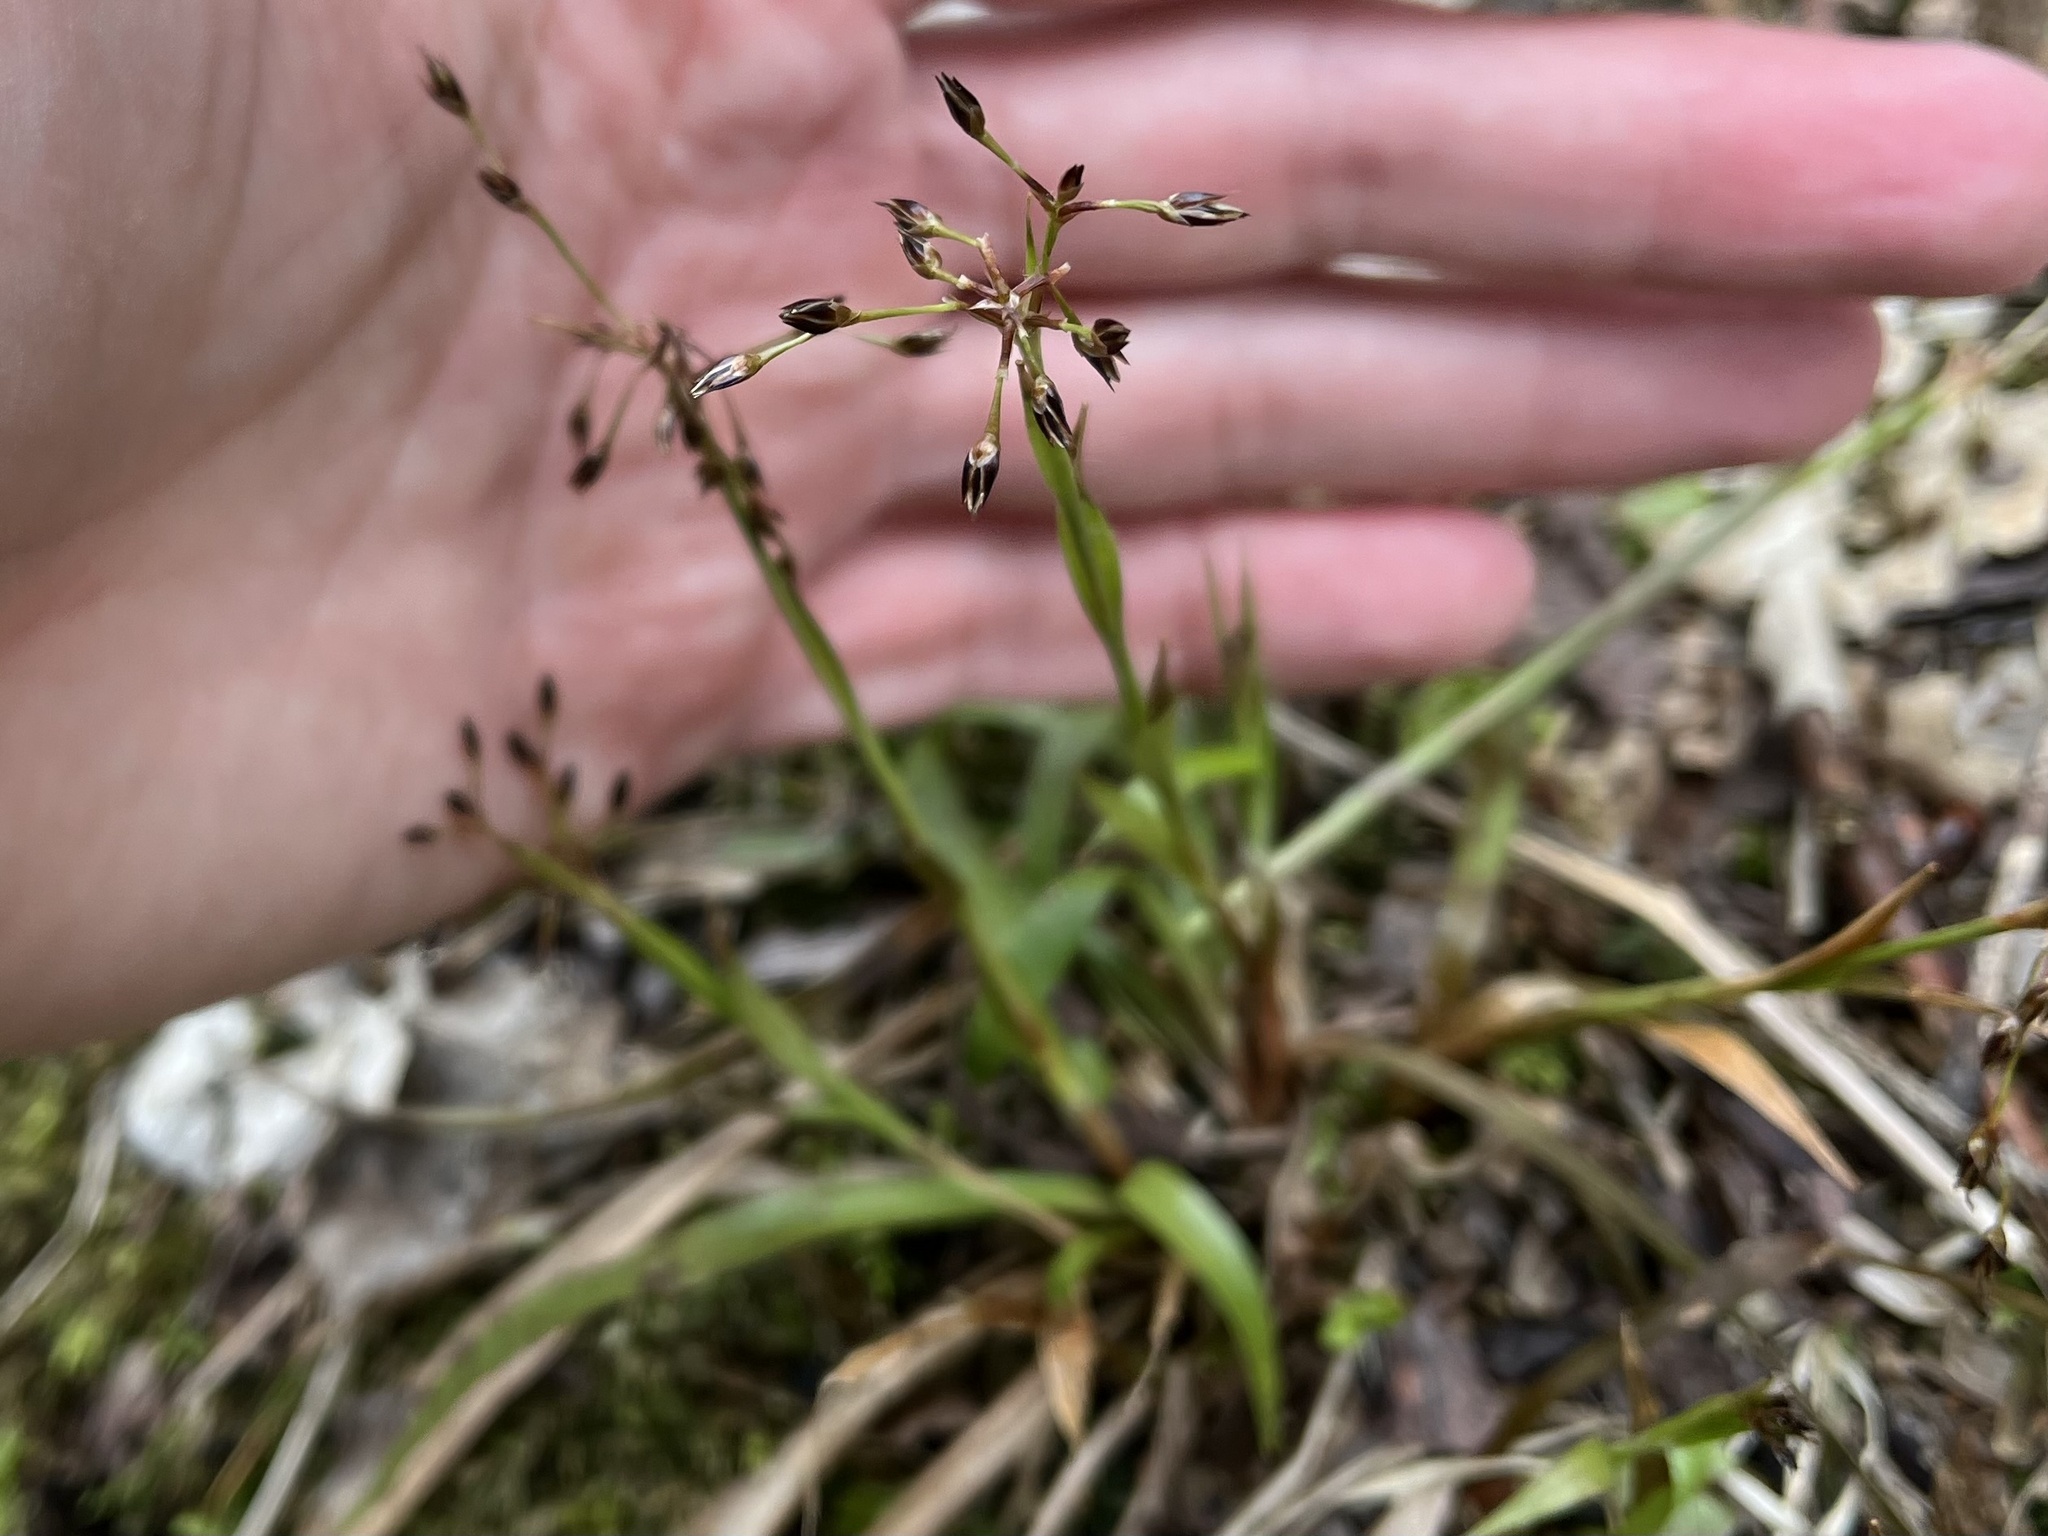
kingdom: Plantae
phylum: Tracheophyta
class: Liliopsida
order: Poales
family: Juncaceae
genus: Luzula
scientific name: Luzula pilosa
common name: Hairy wood-rush
